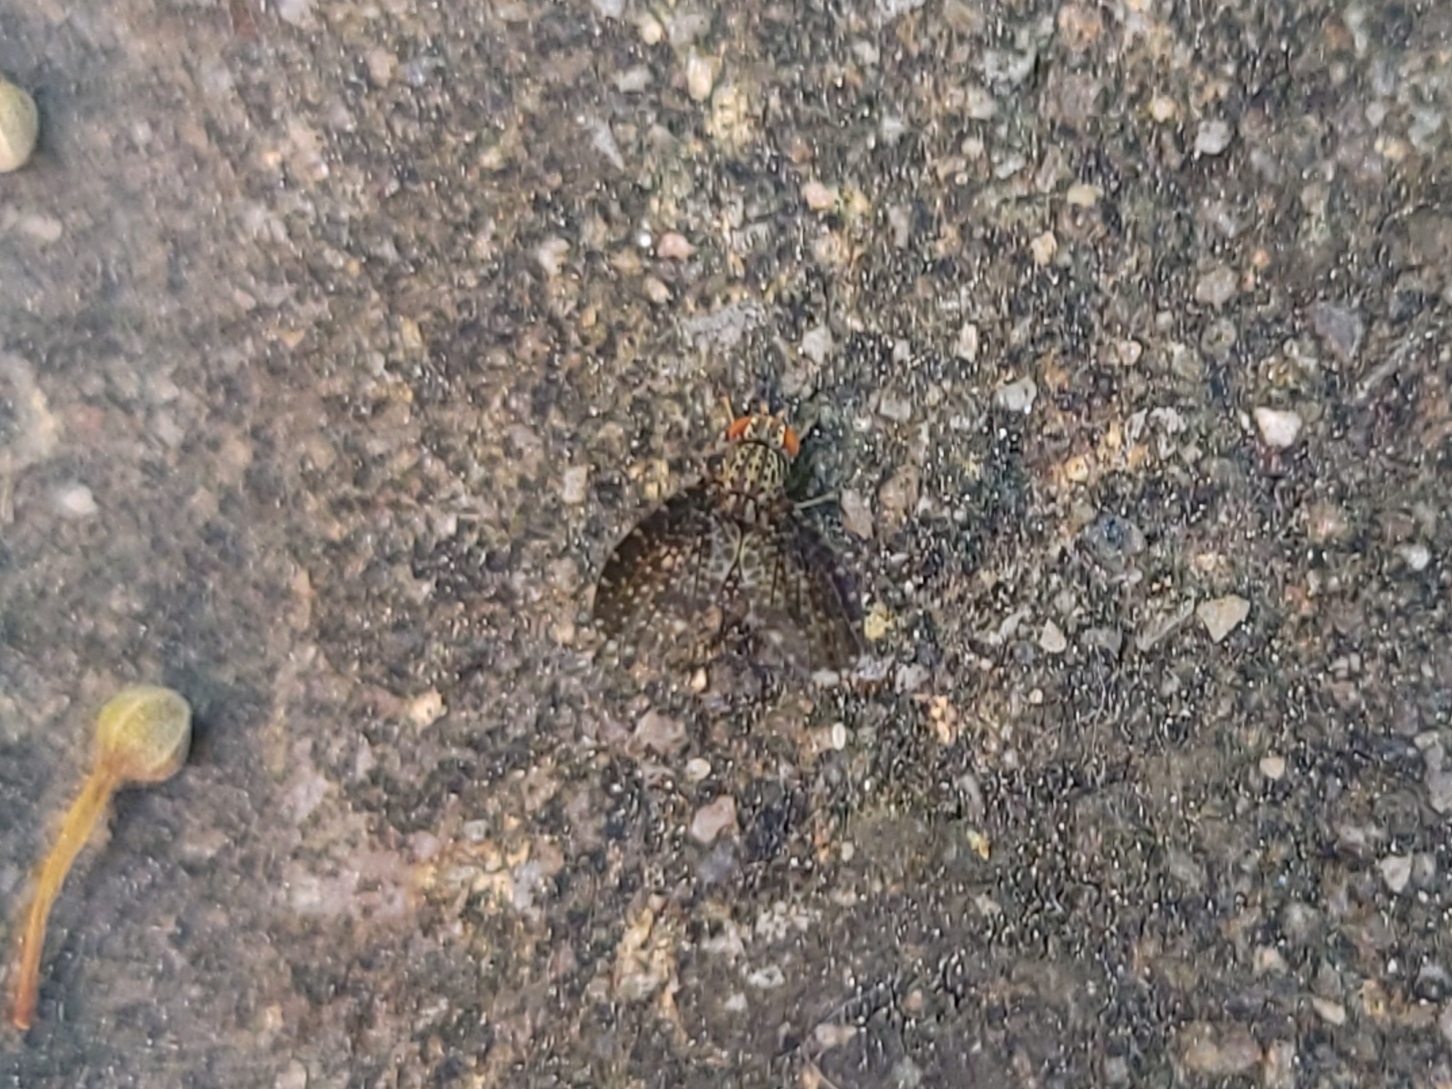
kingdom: Animalia
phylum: Arthropoda
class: Insecta
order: Diptera
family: Lauxaniidae
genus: Trypetisoma
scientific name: Trypetisoma sticticum
